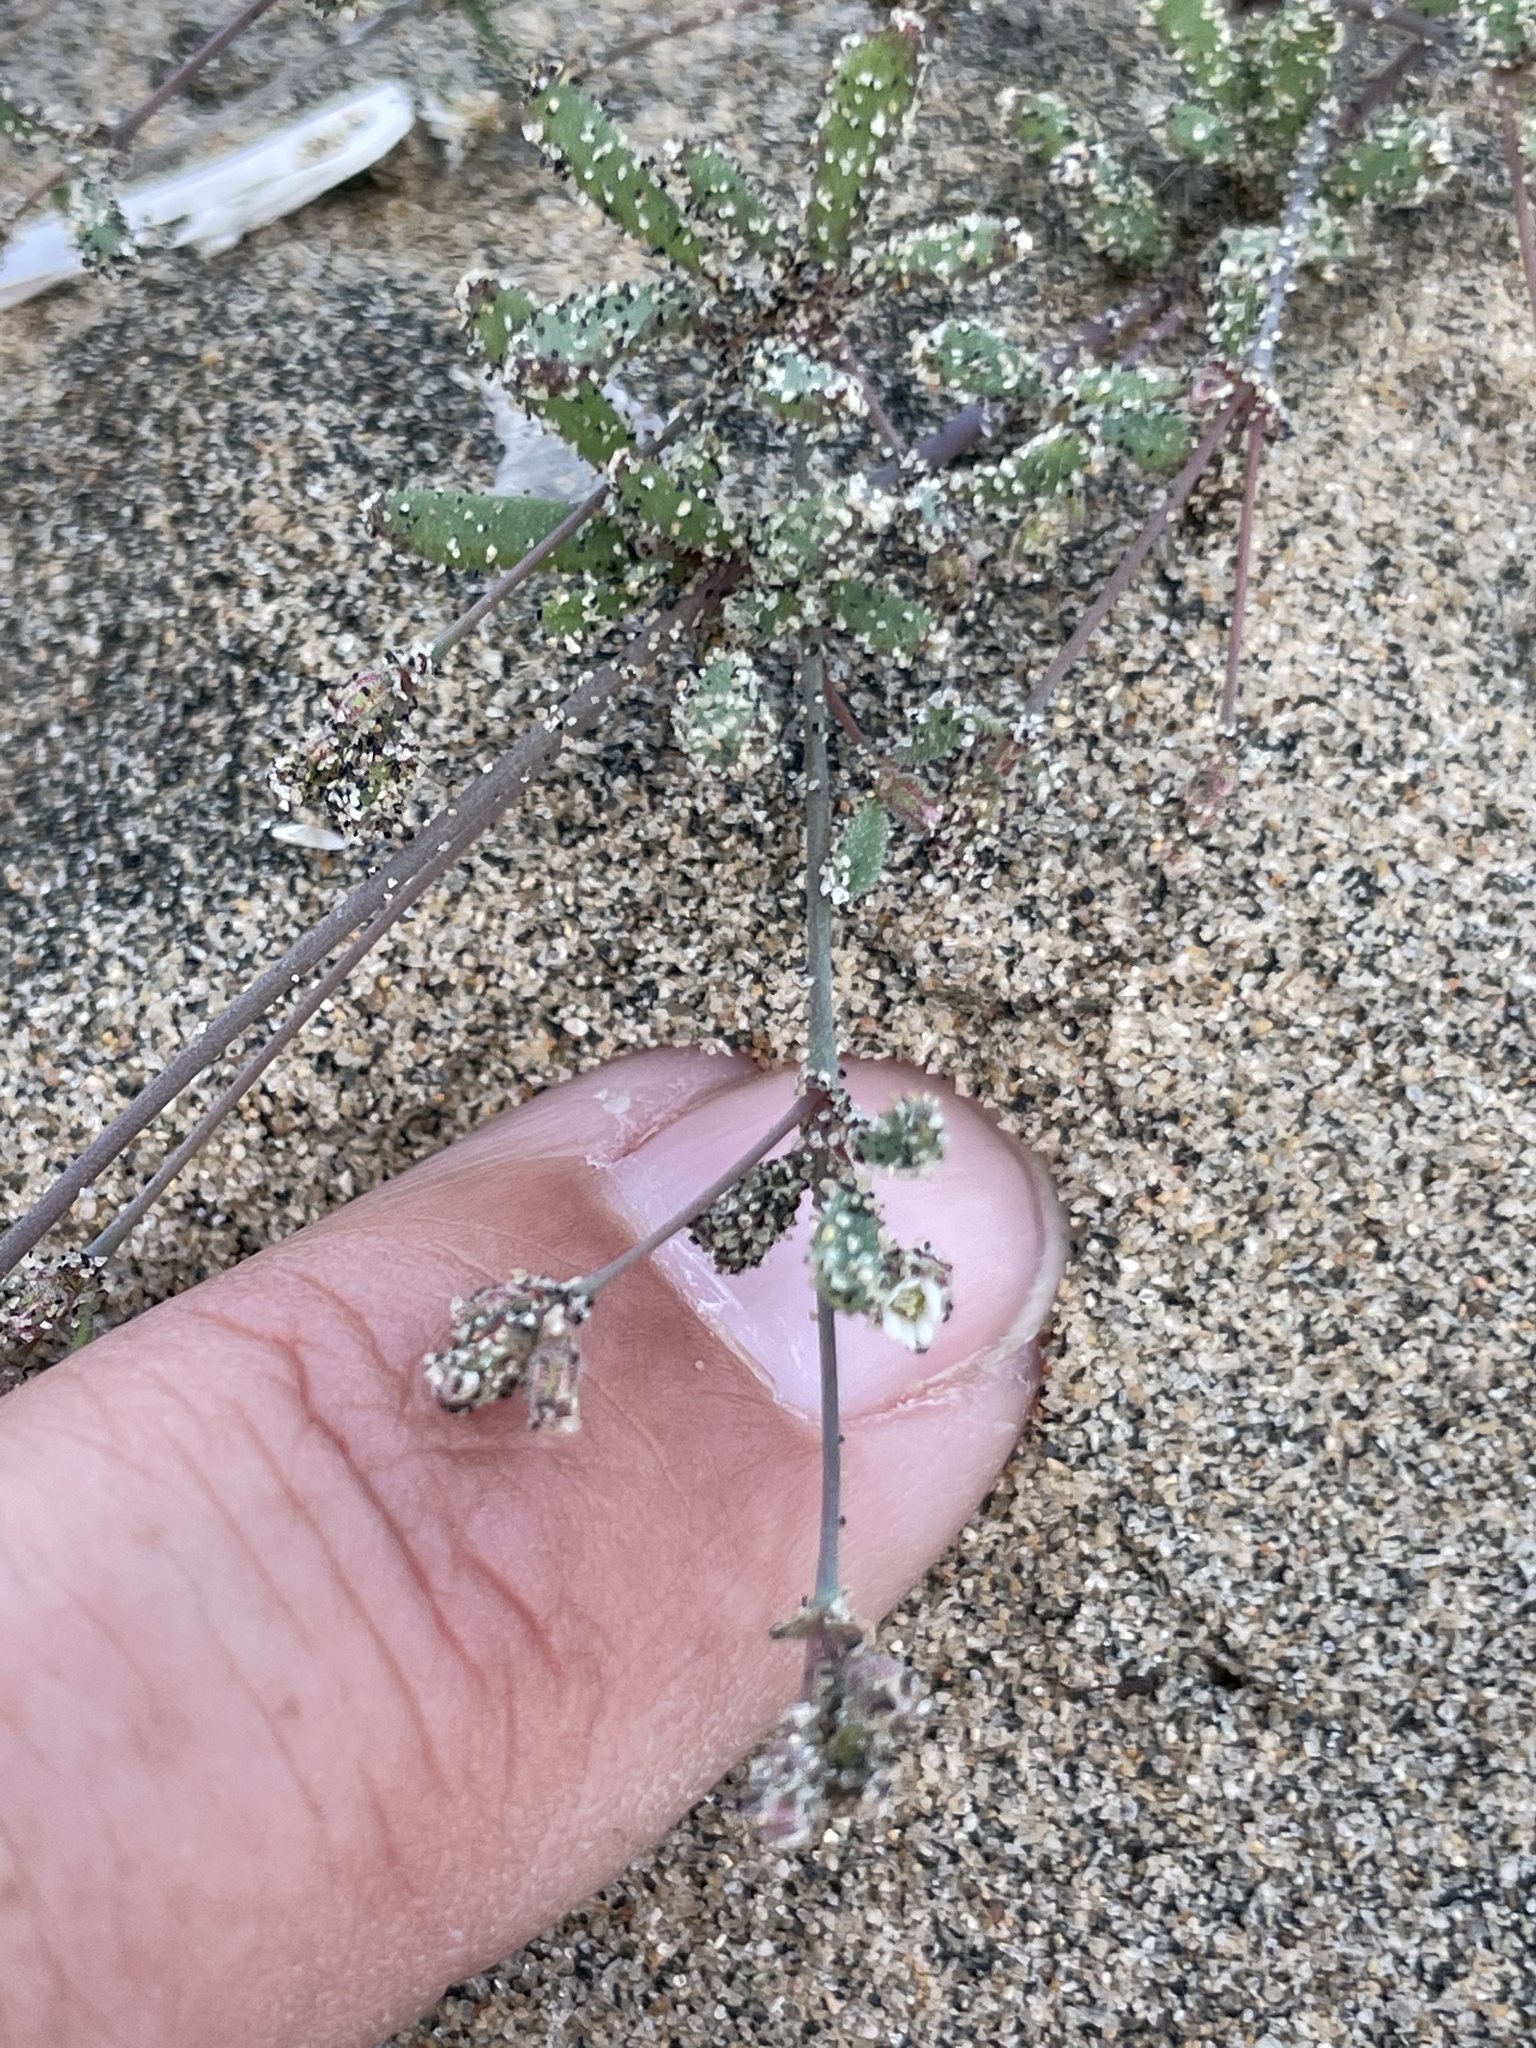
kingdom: Plantae
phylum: Tracheophyta
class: Magnoliopsida
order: Caryophyllales
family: Caryophyllaceae
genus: Drymaria
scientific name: Drymaria viscosa
